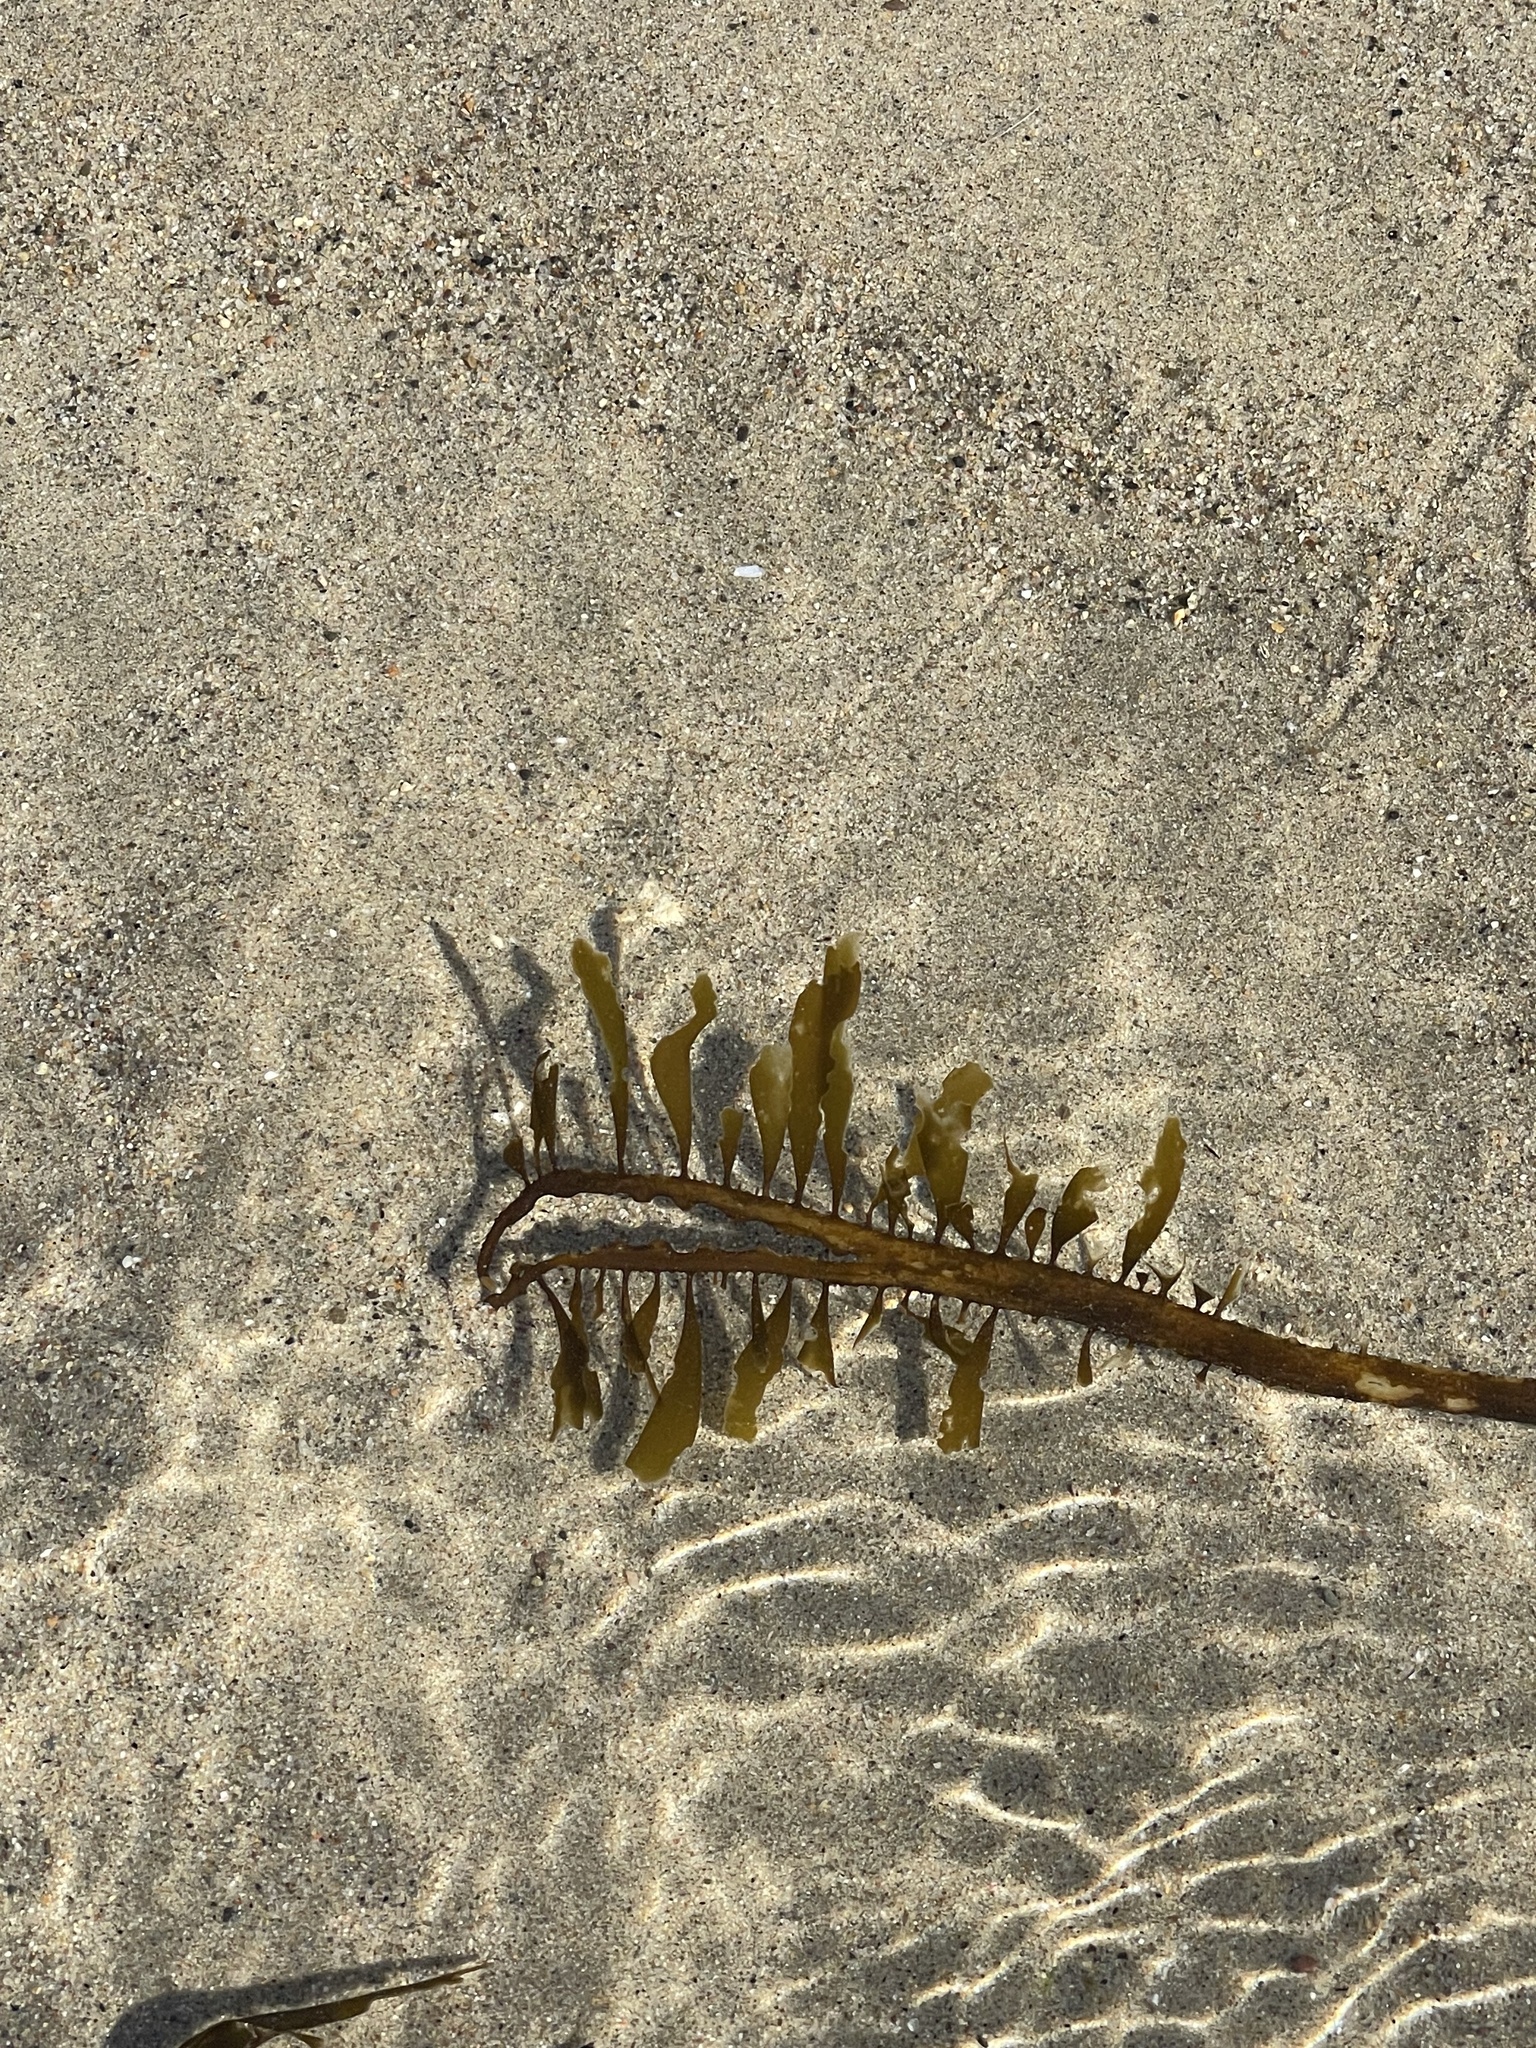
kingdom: Chromista
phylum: Ochrophyta
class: Phaeophyceae
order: Laminariales
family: Lessoniaceae
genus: Egregia
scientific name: Egregia menziesii
